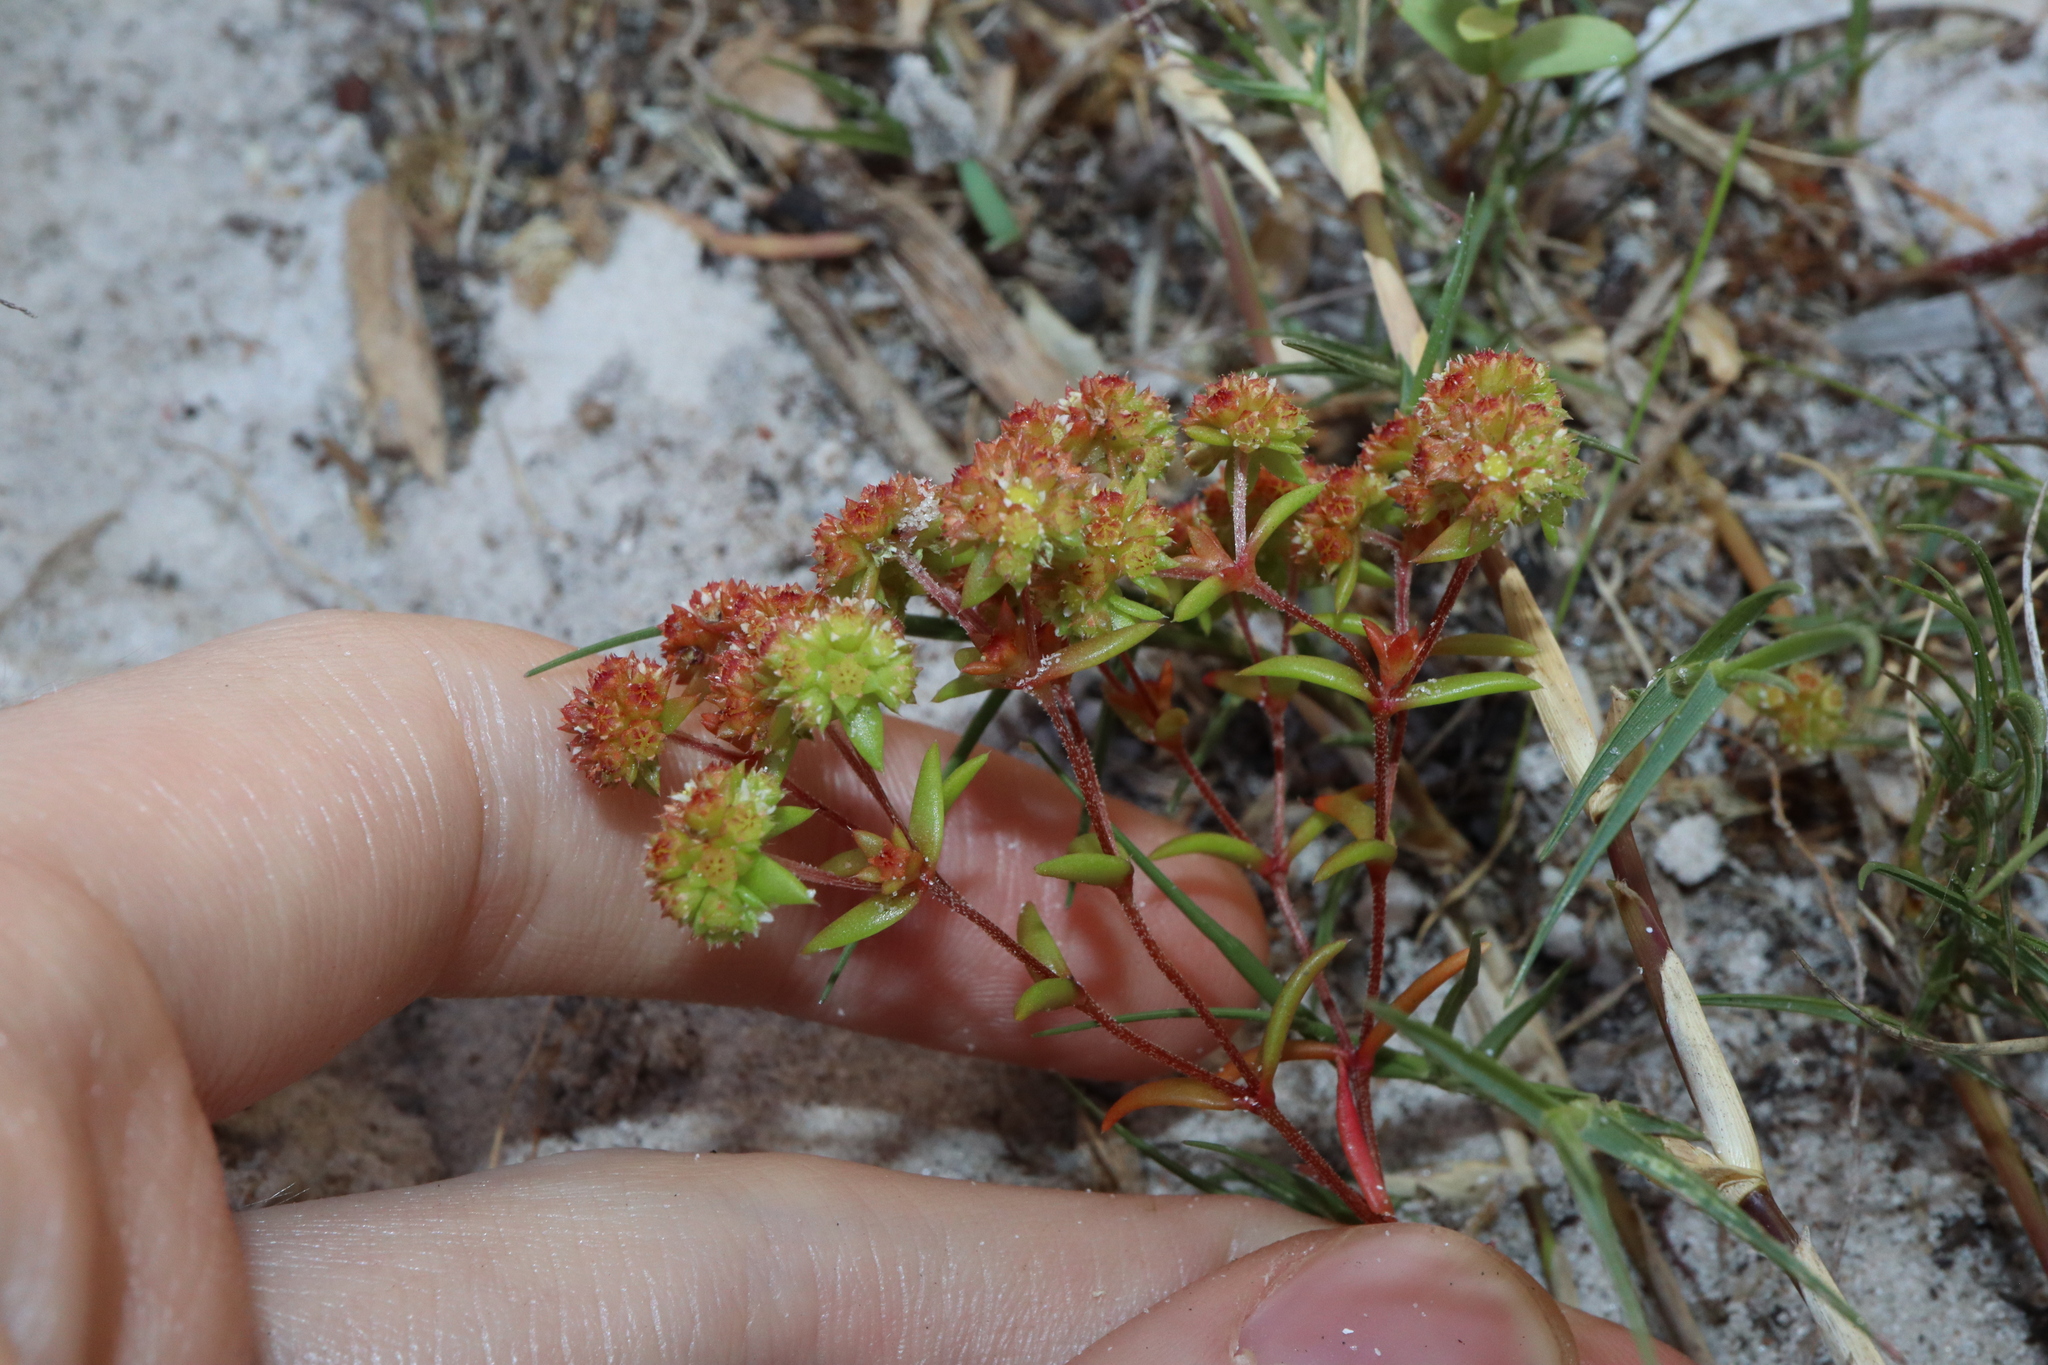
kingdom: Plantae
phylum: Tracheophyta
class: Magnoliopsida
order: Saxifragales
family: Crassulaceae
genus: Crassula
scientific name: Crassula glomerata
